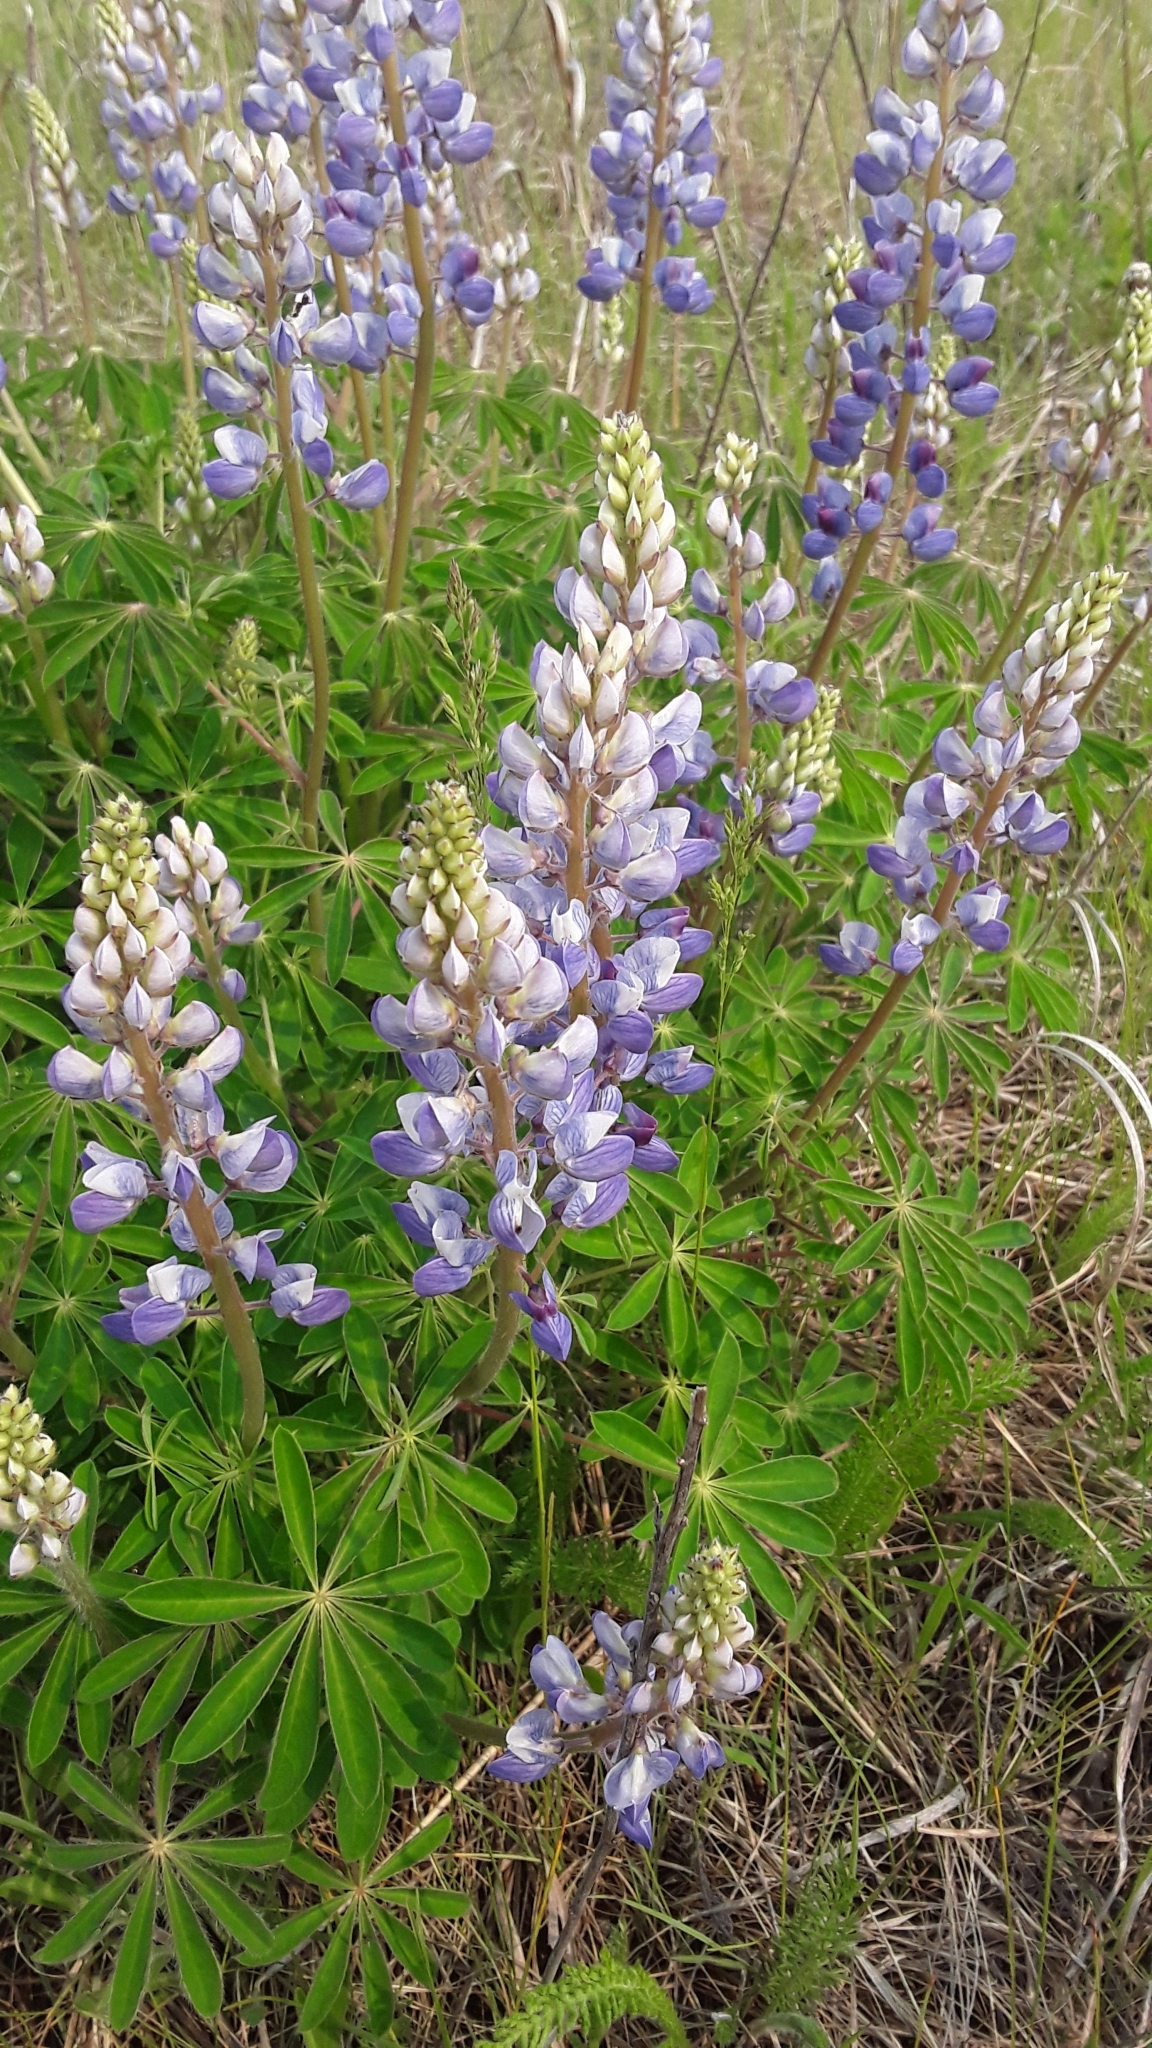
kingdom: Plantae
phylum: Tracheophyta
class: Magnoliopsida
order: Fabales
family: Fabaceae
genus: Lupinus
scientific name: Lupinus perennis
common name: Sundial lupine
